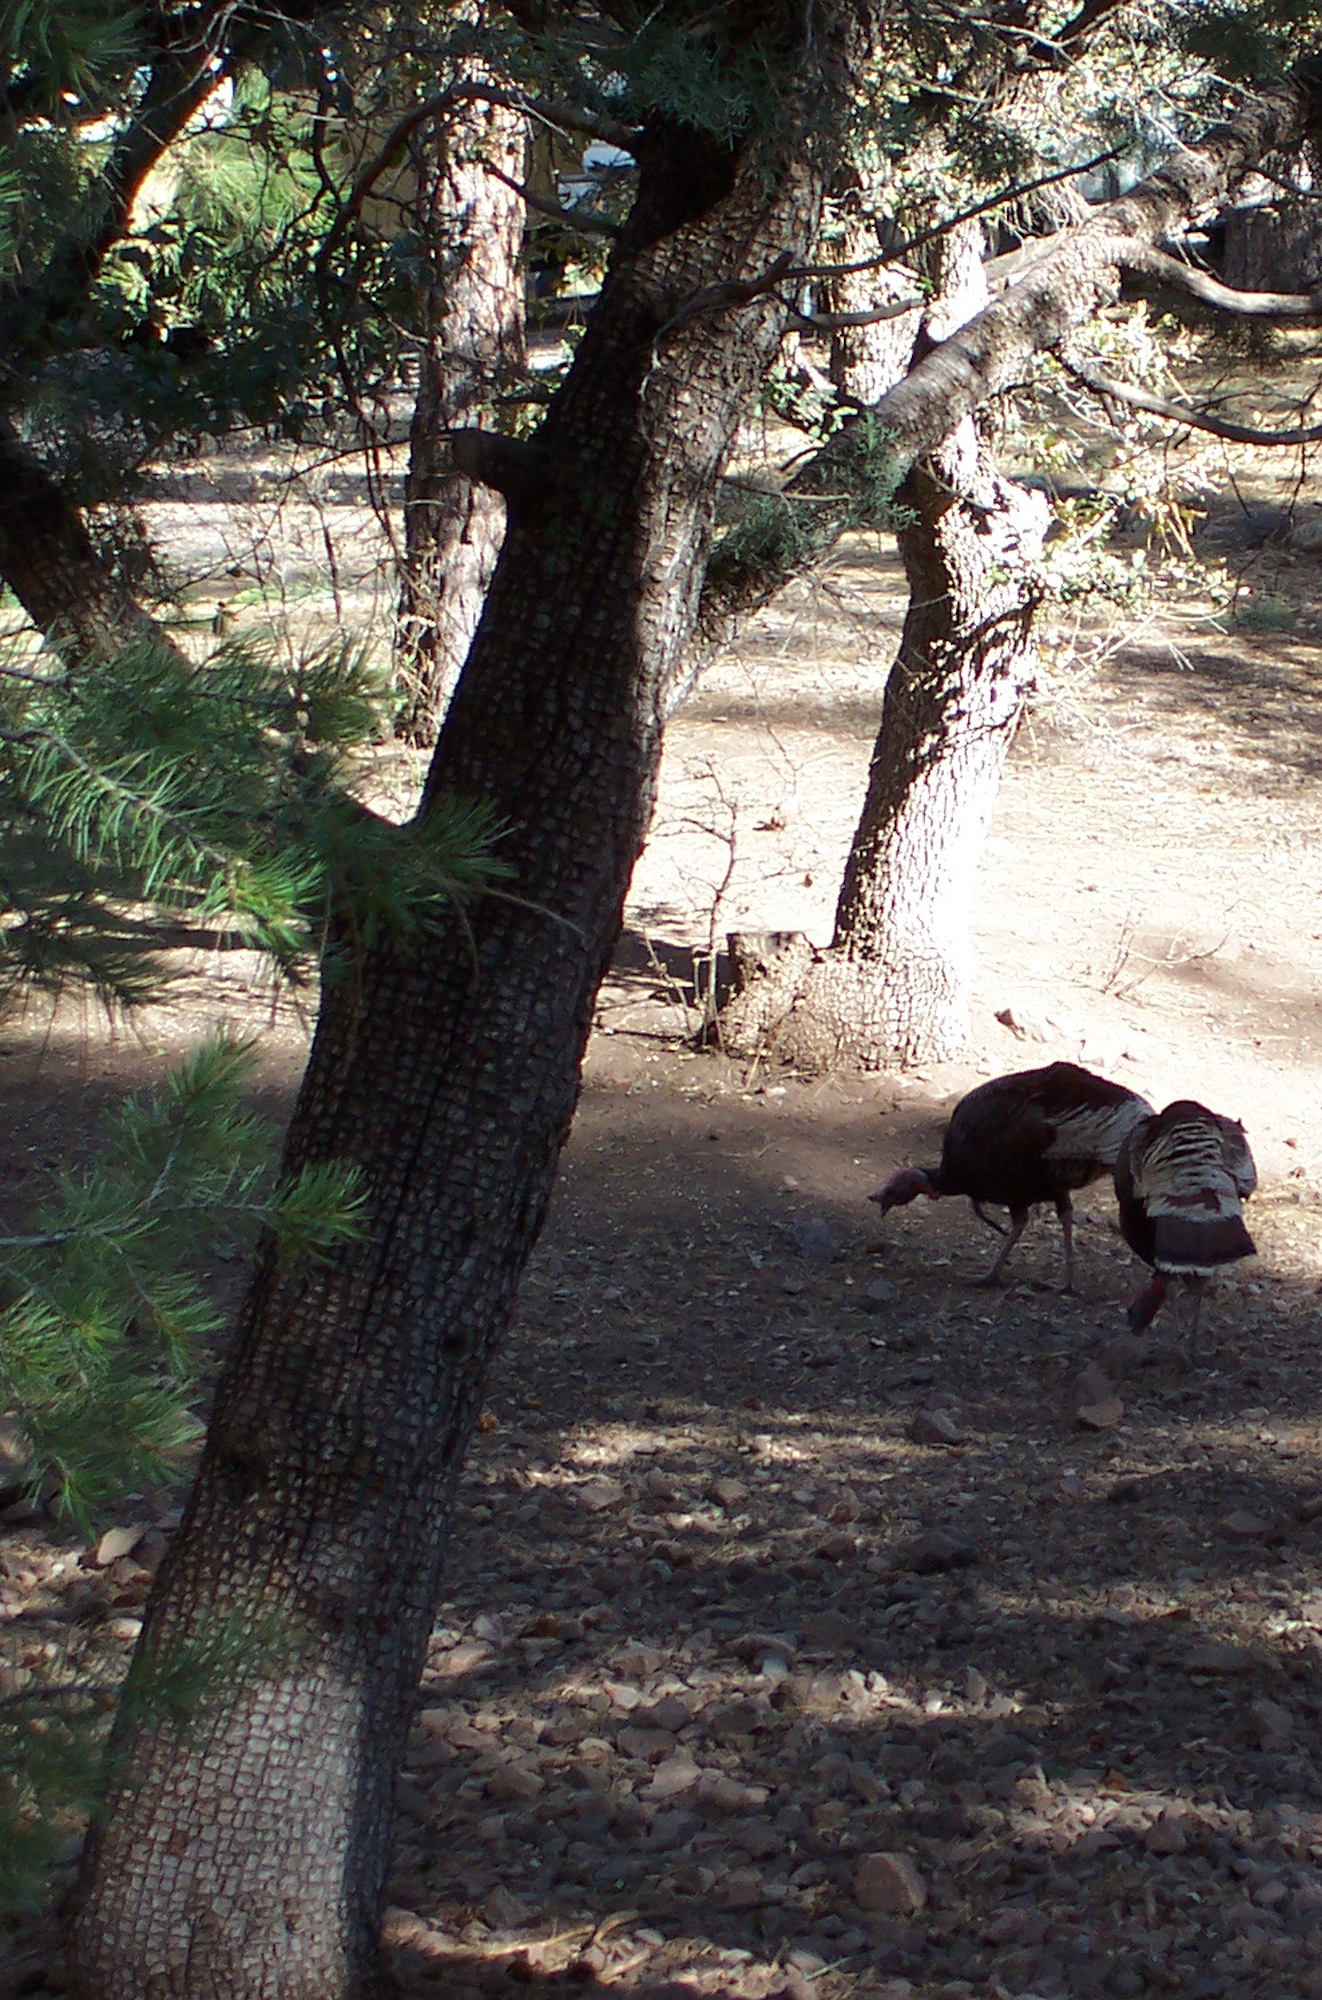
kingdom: Plantae
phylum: Tracheophyta
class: Pinopsida
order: Pinales
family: Cupressaceae
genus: Juniperus
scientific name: Juniperus deppeana
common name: Alligator juniper
